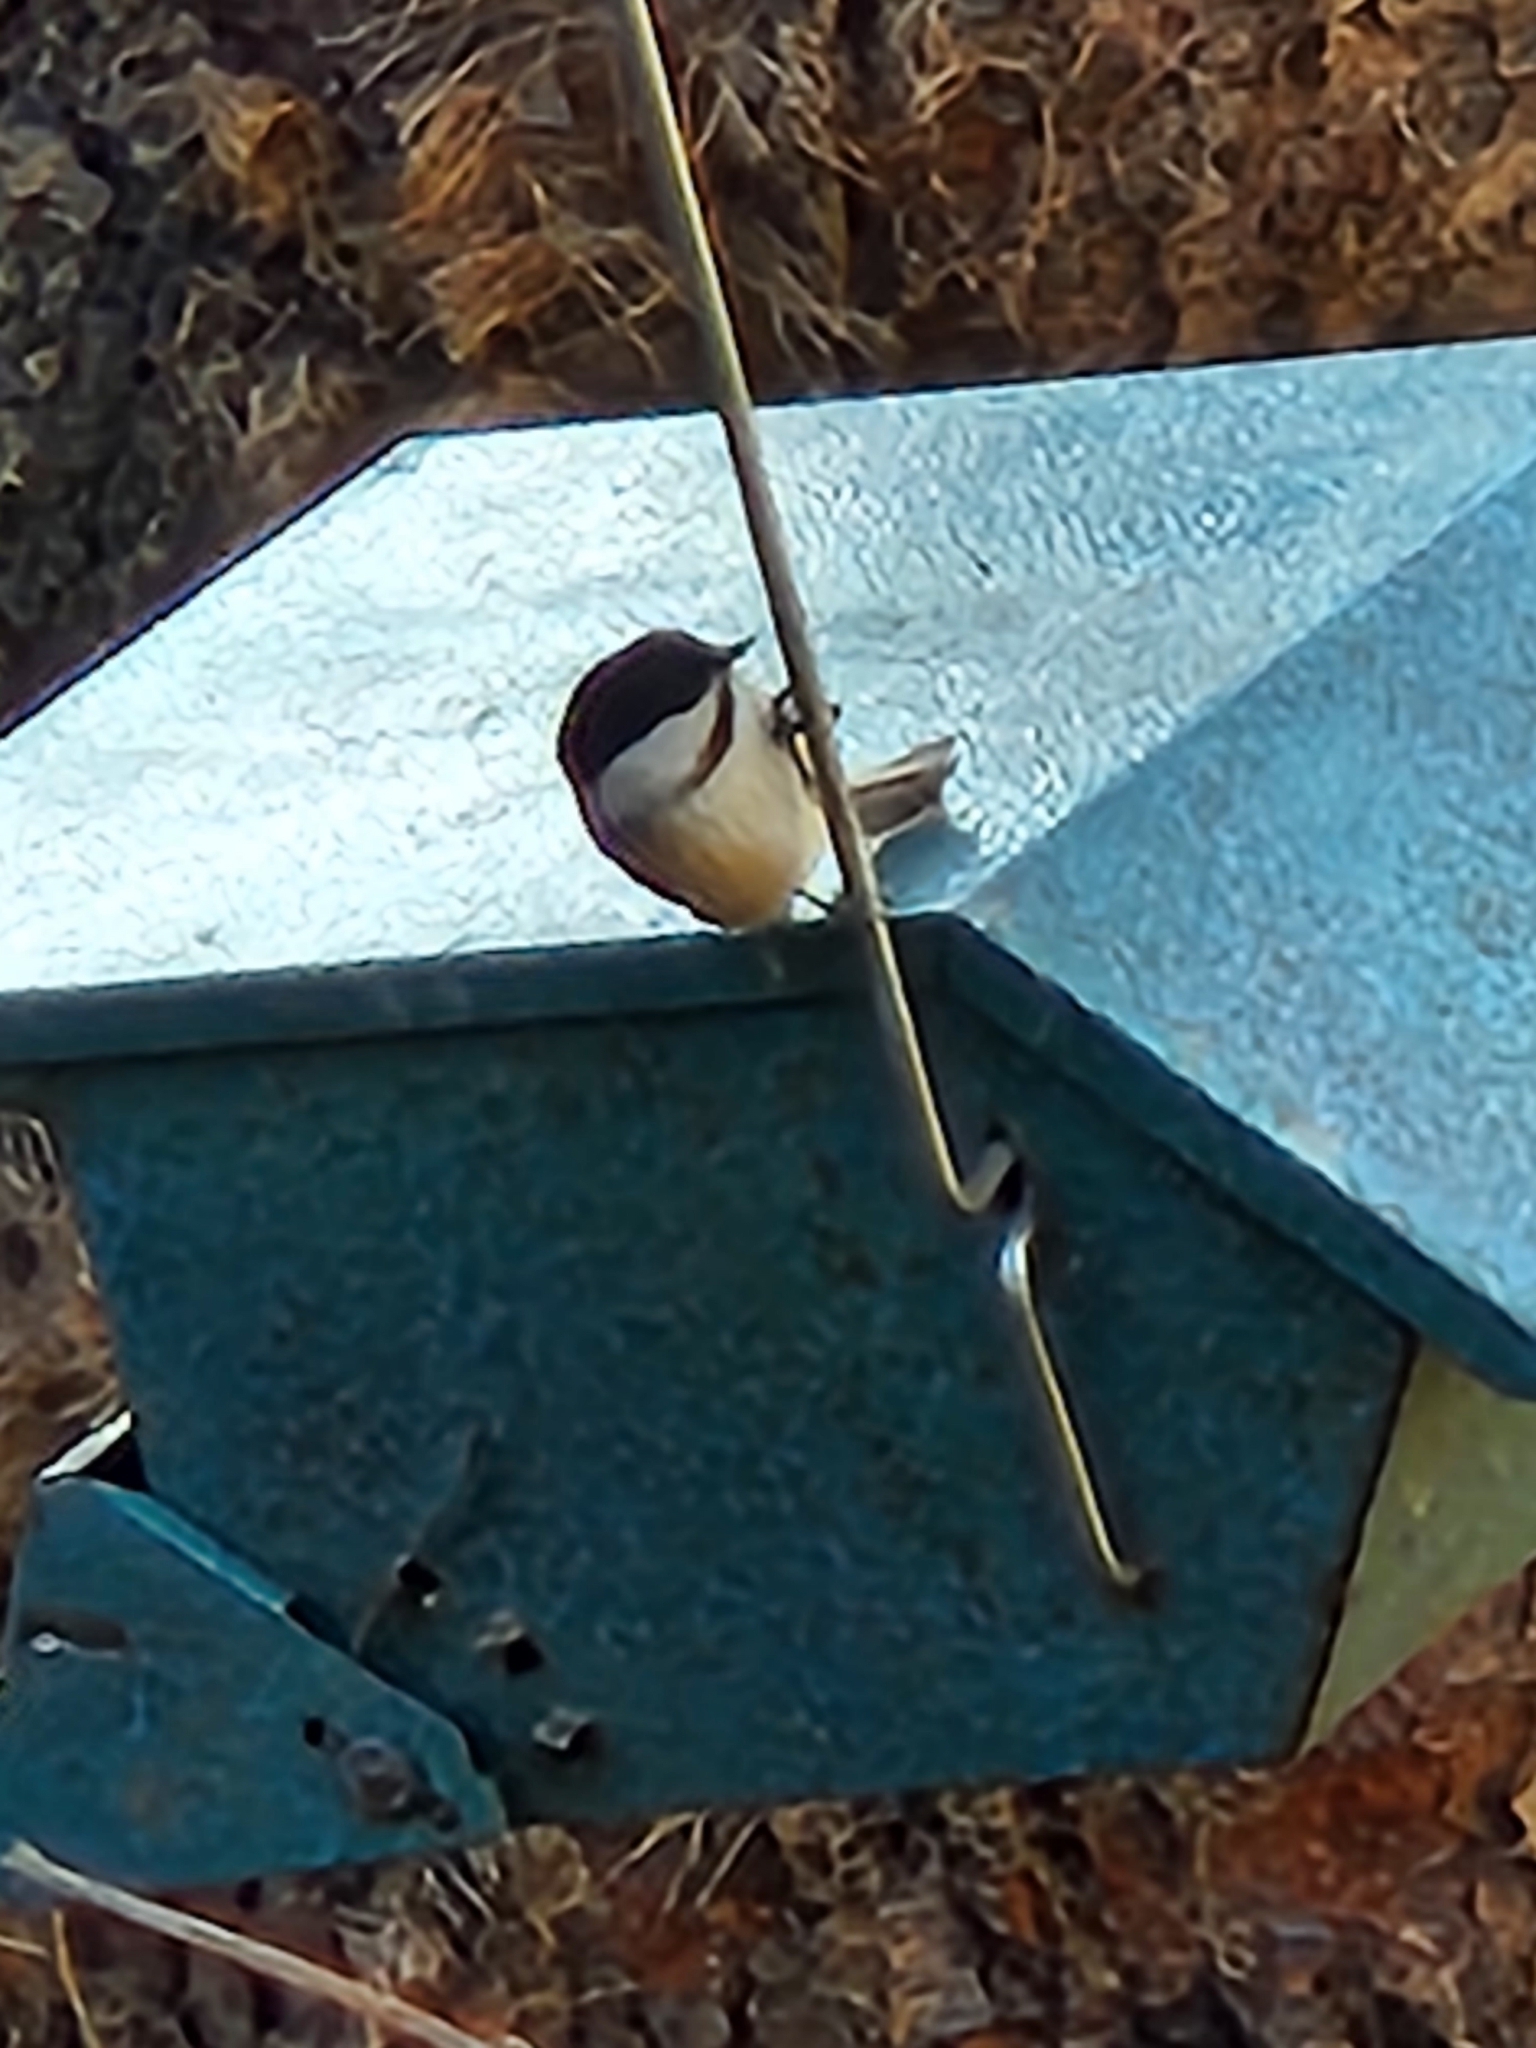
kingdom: Animalia
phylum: Chordata
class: Aves
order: Passeriformes
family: Paridae
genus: Poecile
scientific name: Poecile atricapillus
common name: Black-capped chickadee
